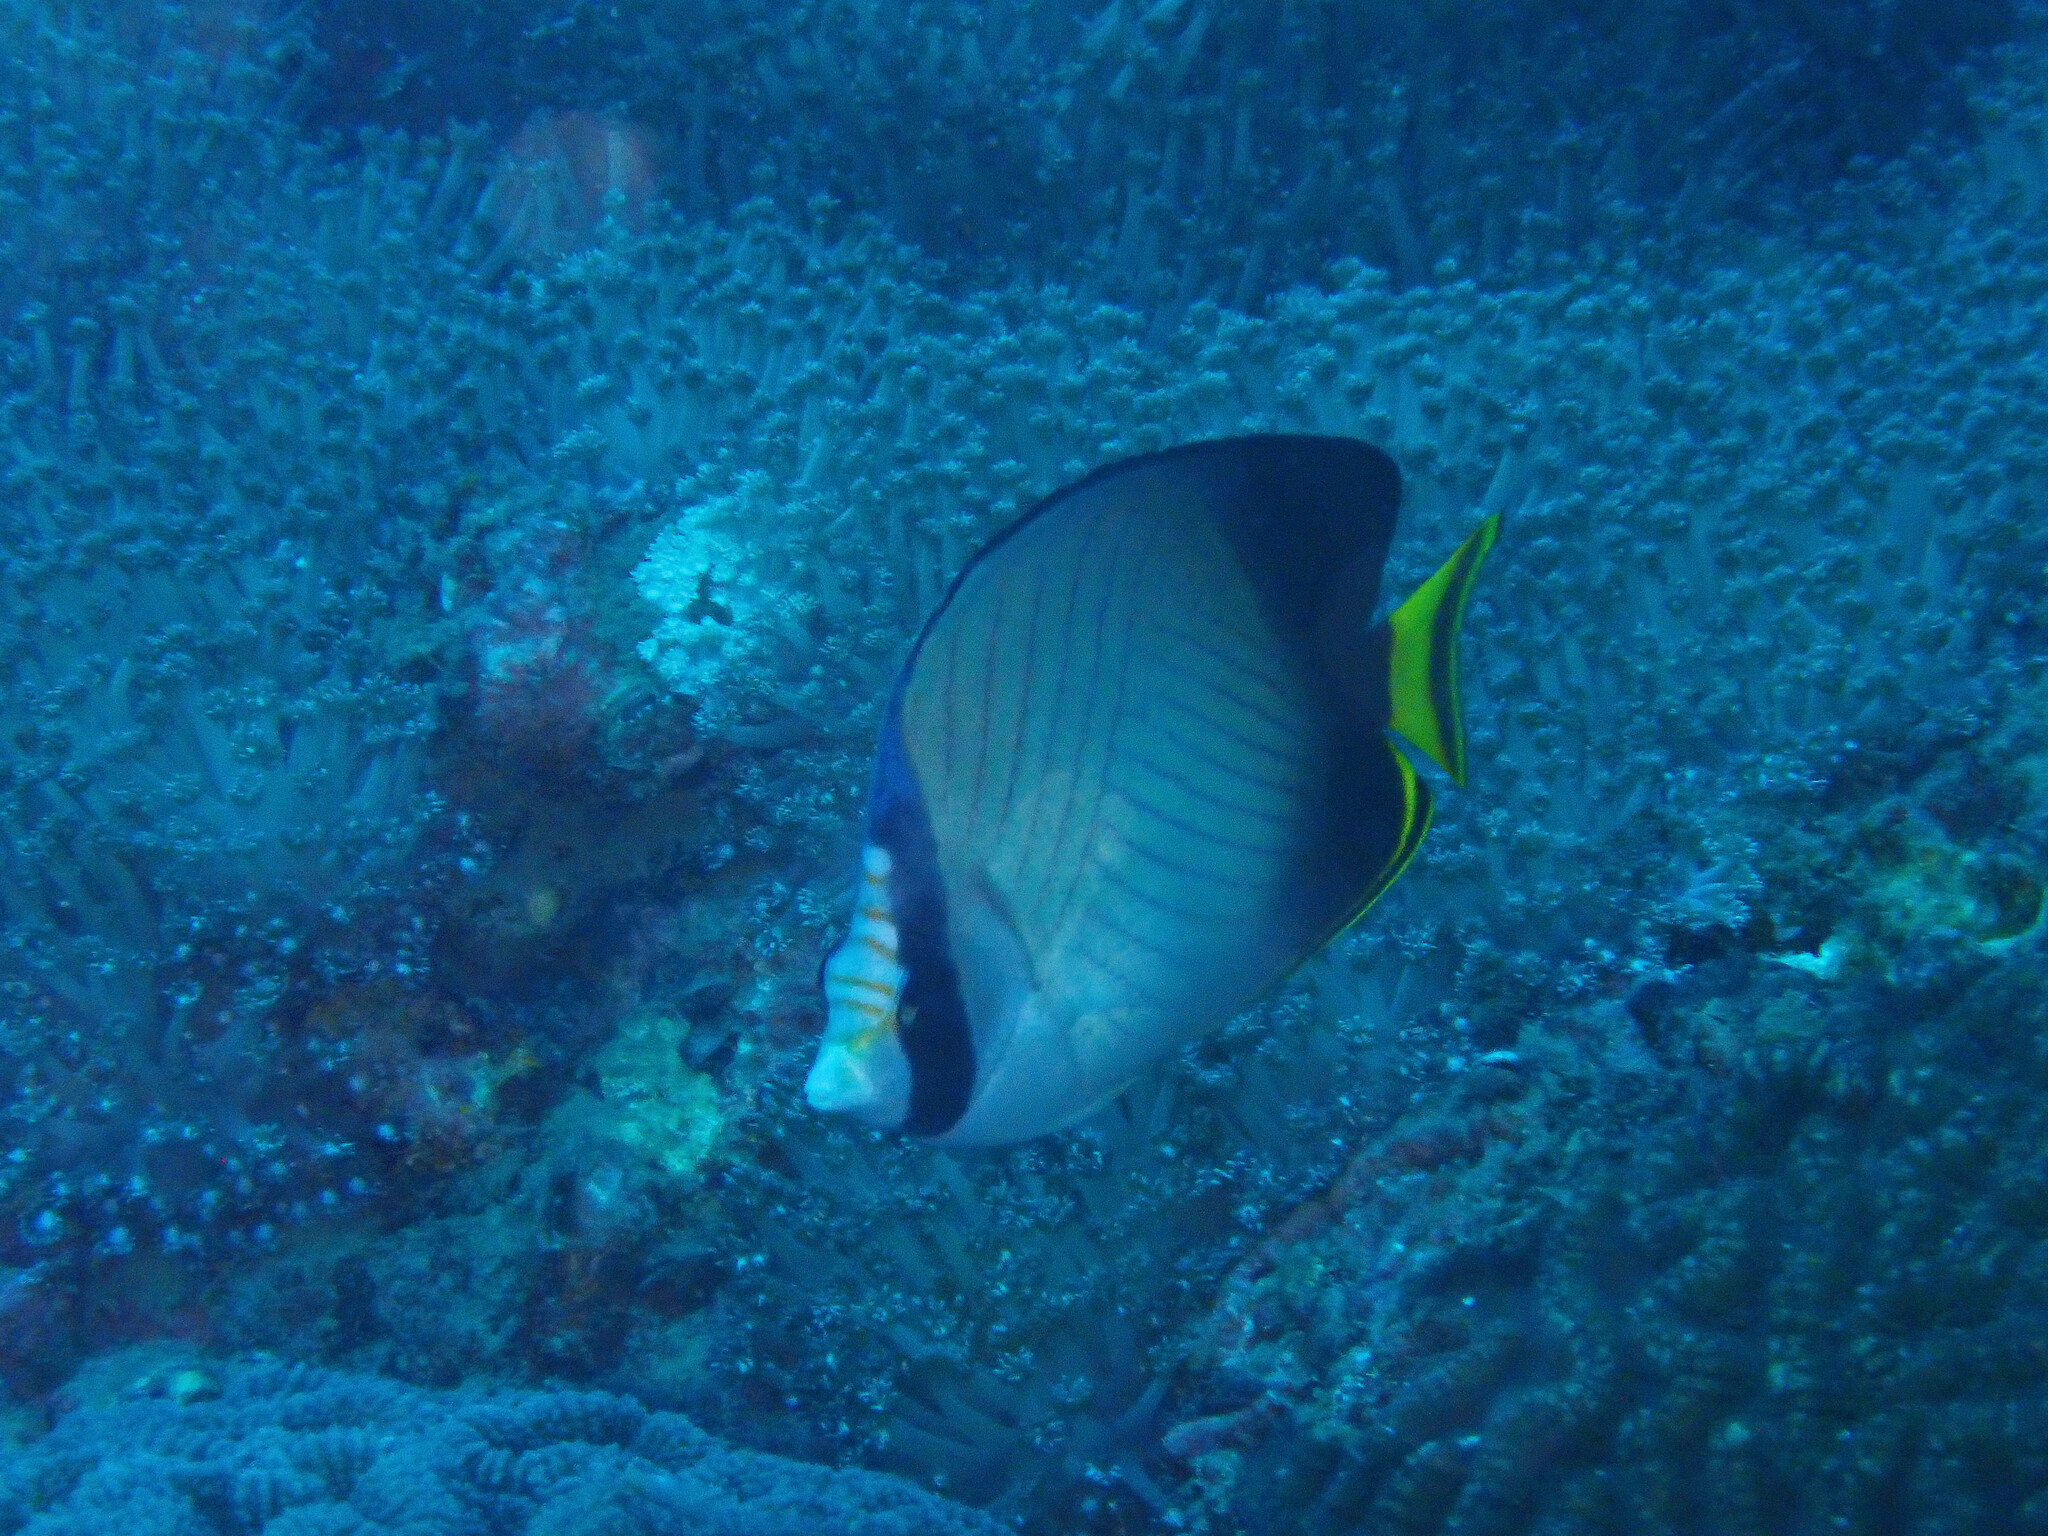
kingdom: Animalia
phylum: Chordata
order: Perciformes
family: Chaetodontidae
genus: Chaetodon
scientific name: Chaetodon decussatus
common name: Indian vagabond butterflyfish
